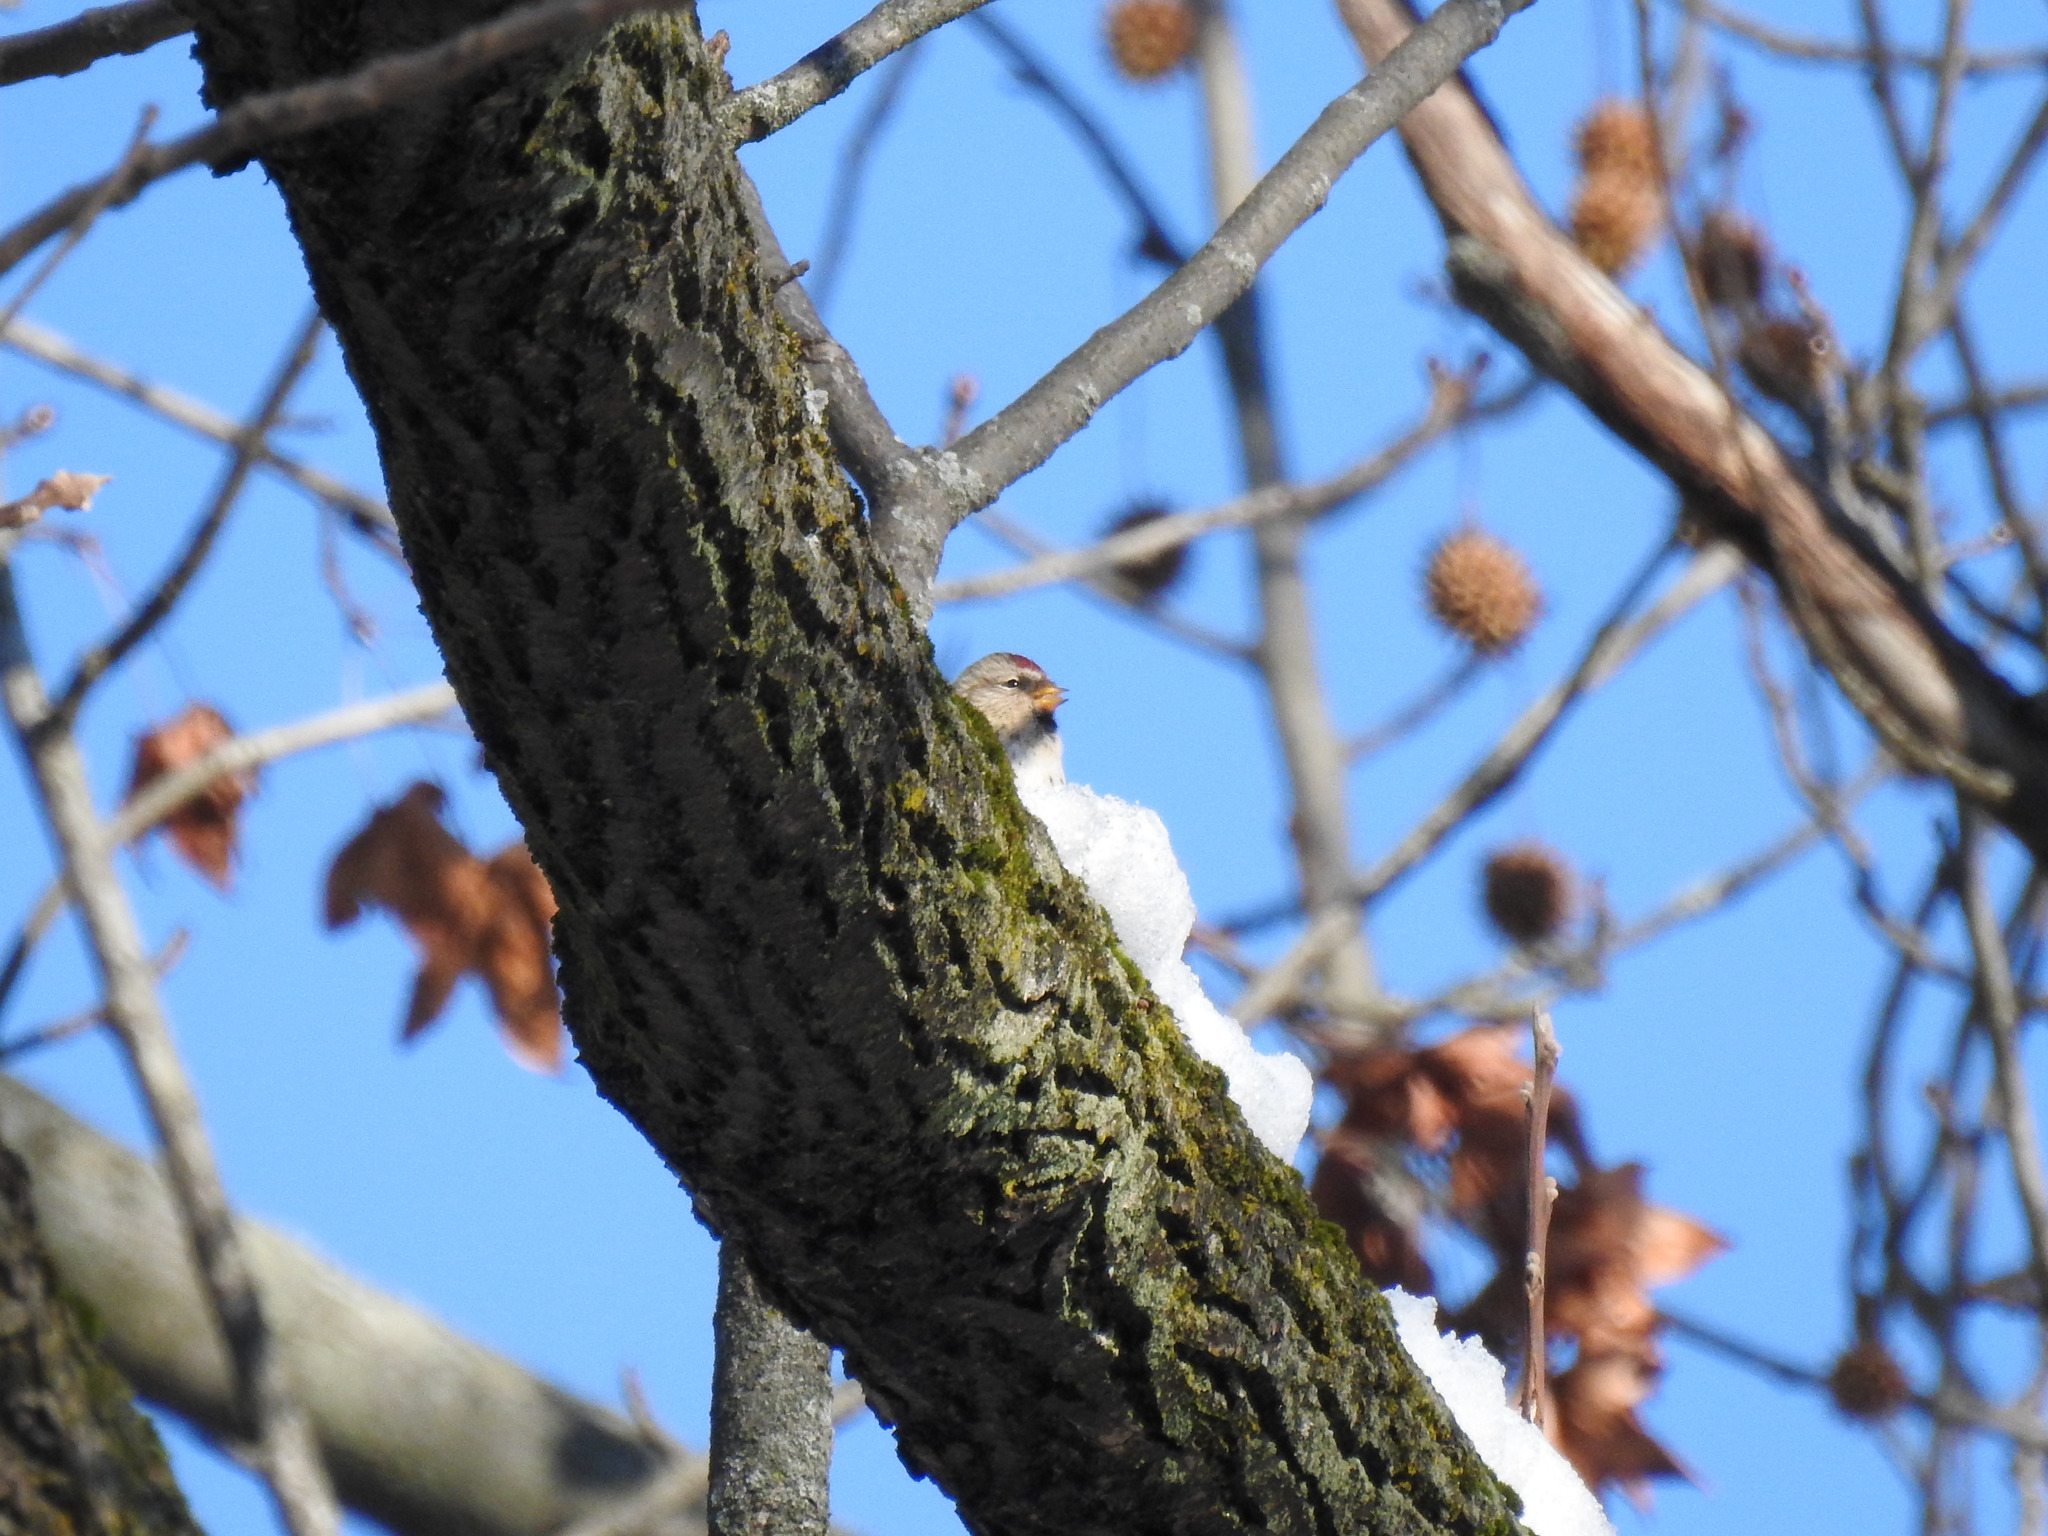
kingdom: Animalia
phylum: Chordata
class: Aves
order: Passeriformes
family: Fringillidae
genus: Acanthis
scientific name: Acanthis flammea
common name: Common redpoll
